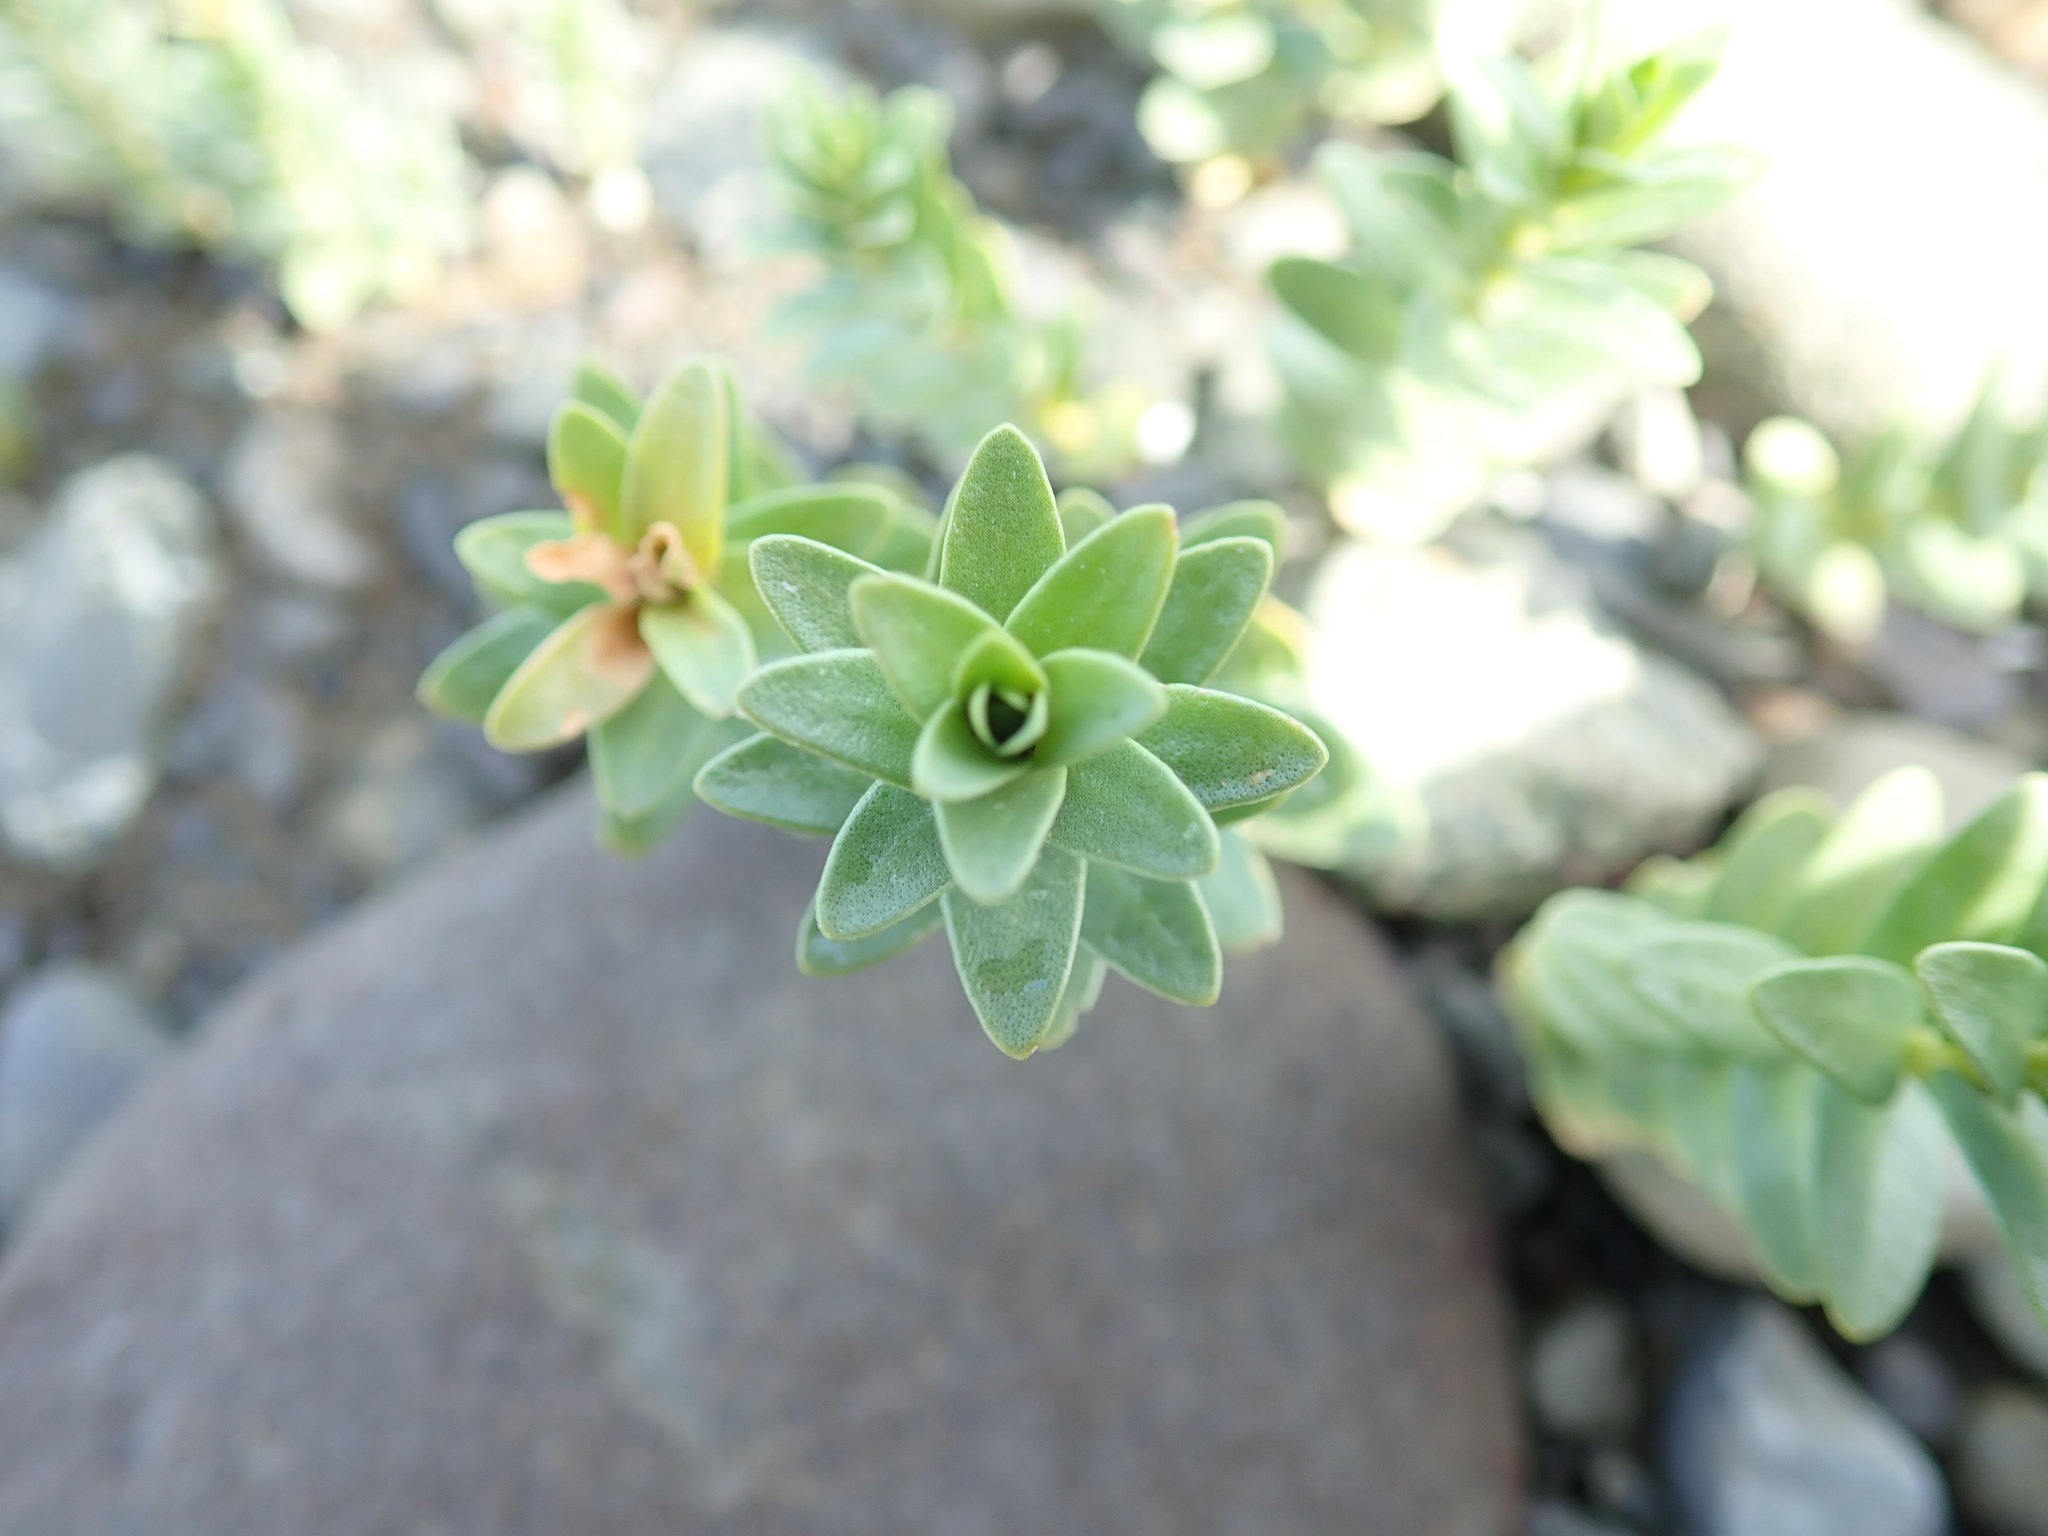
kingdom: Plantae
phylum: Tracheophyta
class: Magnoliopsida
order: Caryophyllales
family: Caryophyllaceae
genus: Honckenya
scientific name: Honckenya peploides
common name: Sea sandwort
